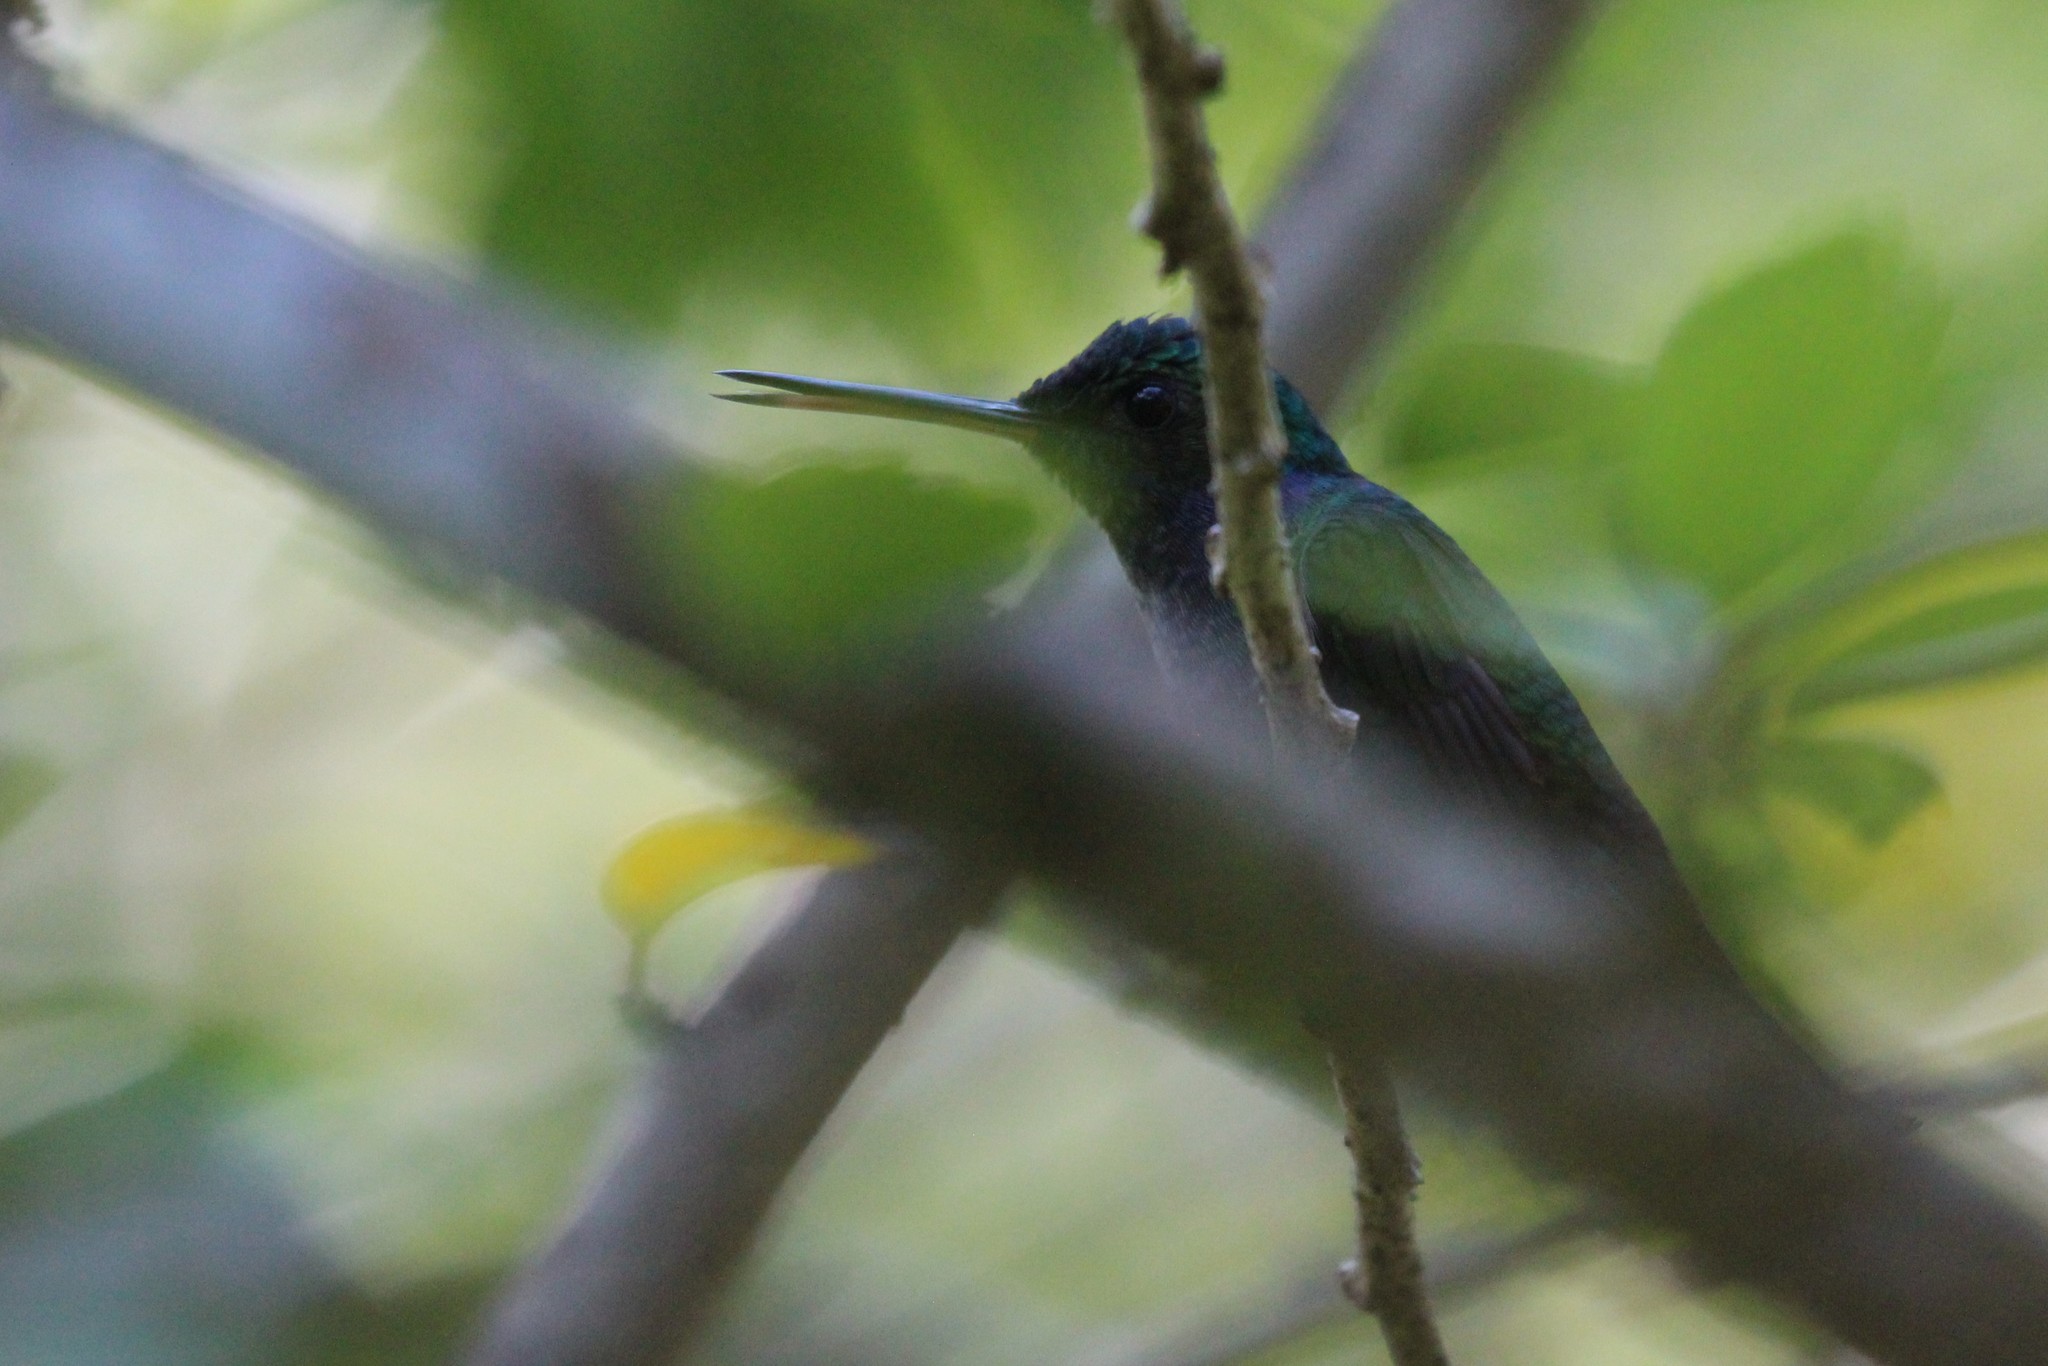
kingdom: Animalia
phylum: Chordata
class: Aves
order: Apodiformes
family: Trochilidae
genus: Polyerata
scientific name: Polyerata decora
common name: Charming hummingbird
